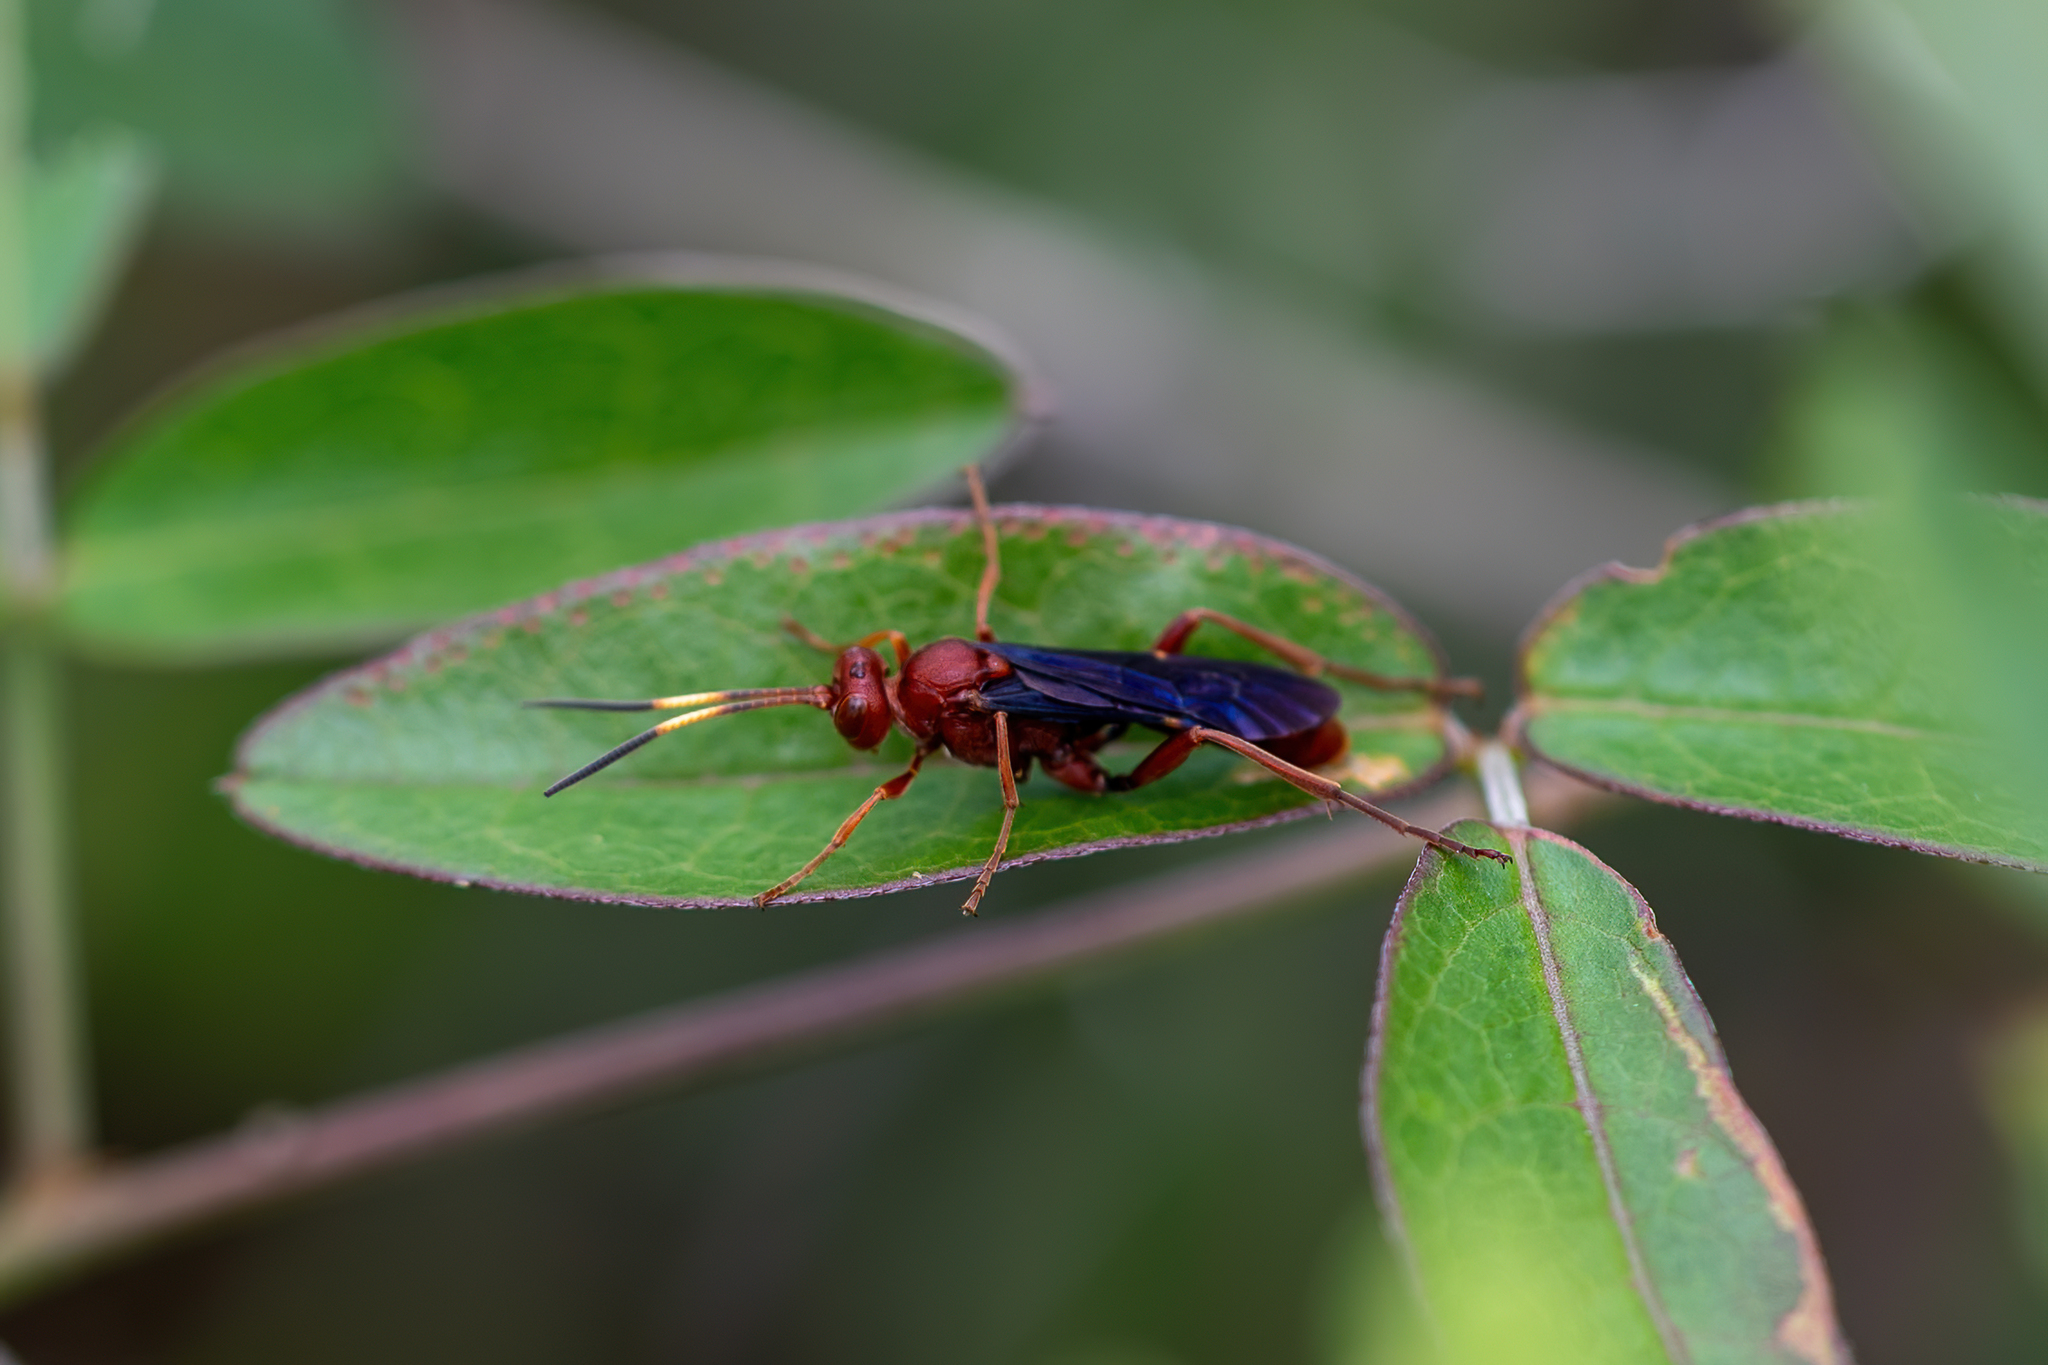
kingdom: Animalia
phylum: Arthropoda
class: Insecta
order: Hymenoptera
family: Ichneumonidae
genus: Trogomorpha
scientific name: Trogomorpha trogiformis
